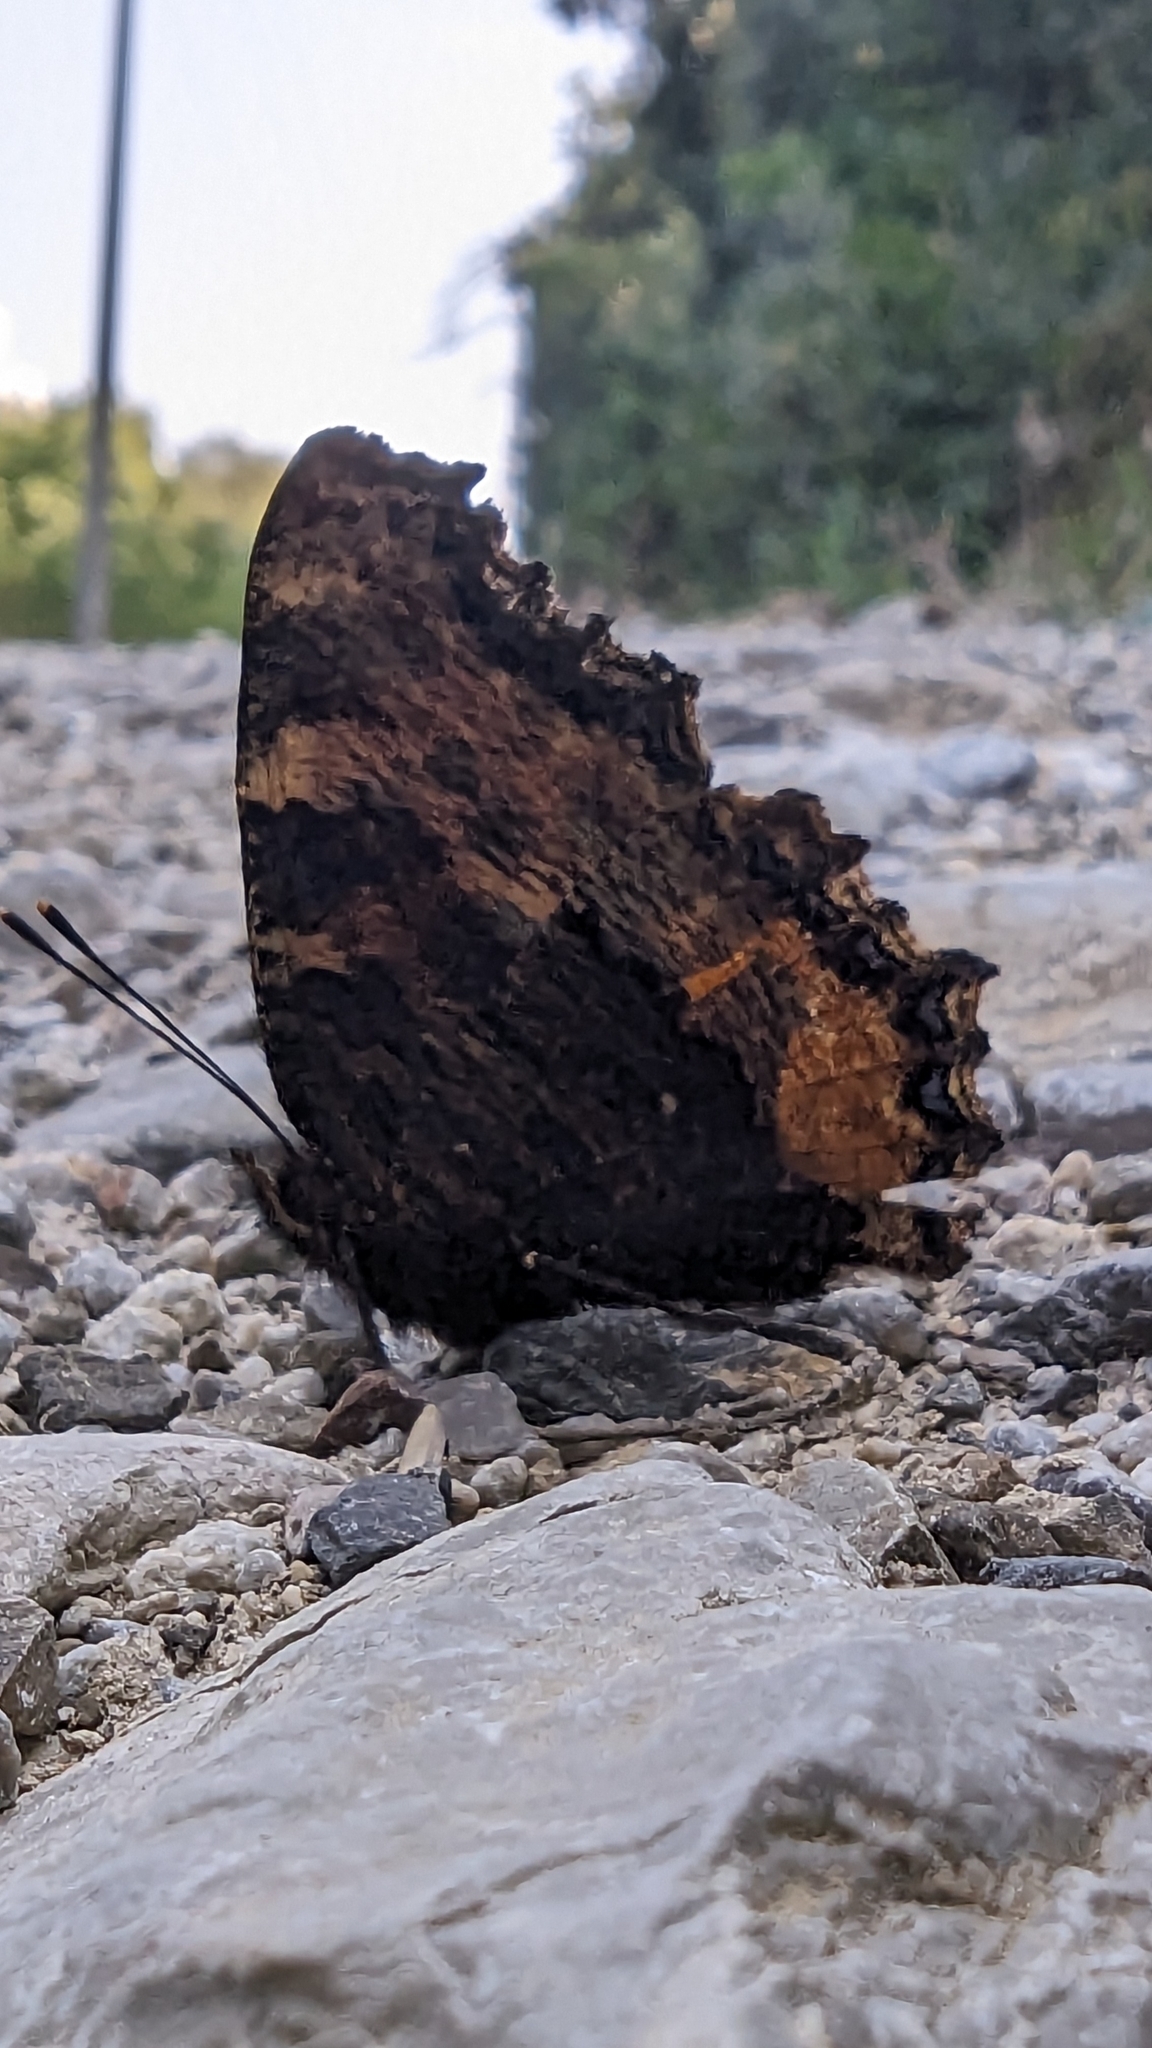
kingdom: Animalia
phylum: Arthropoda
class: Insecta
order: Lepidoptera
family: Nymphalidae
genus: Nymphalis
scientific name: Nymphalis polychloros
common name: Large tortoiseshell
